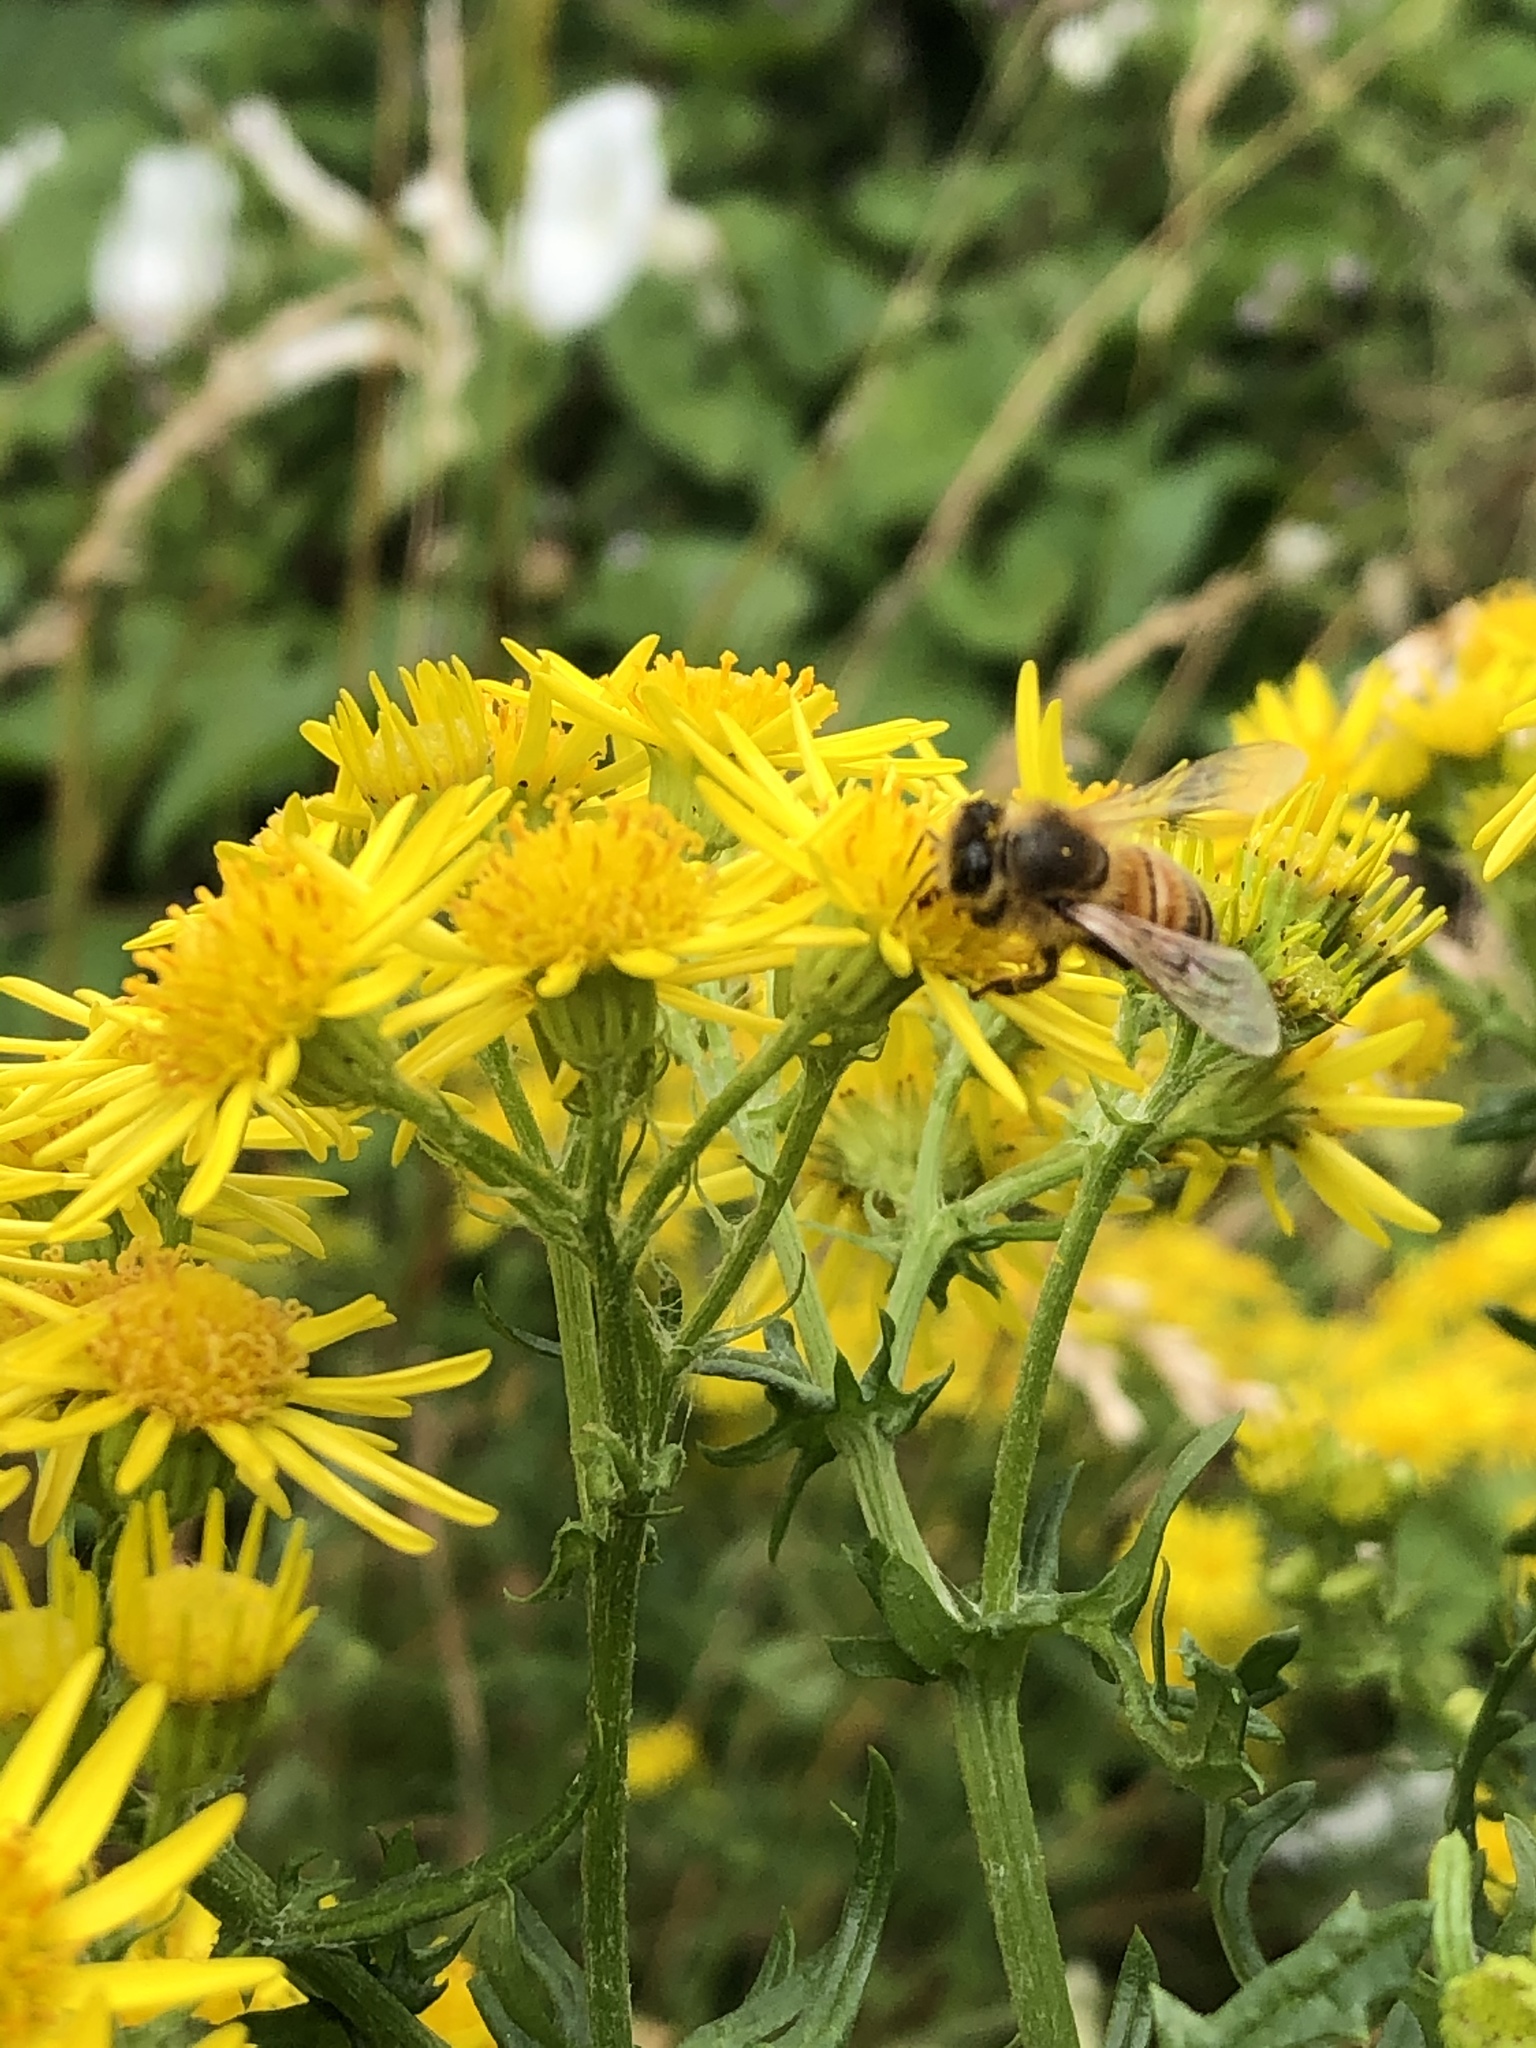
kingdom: Animalia
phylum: Arthropoda
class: Insecta
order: Hymenoptera
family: Apidae
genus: Apis
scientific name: Apis mellifera
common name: Honey bee
